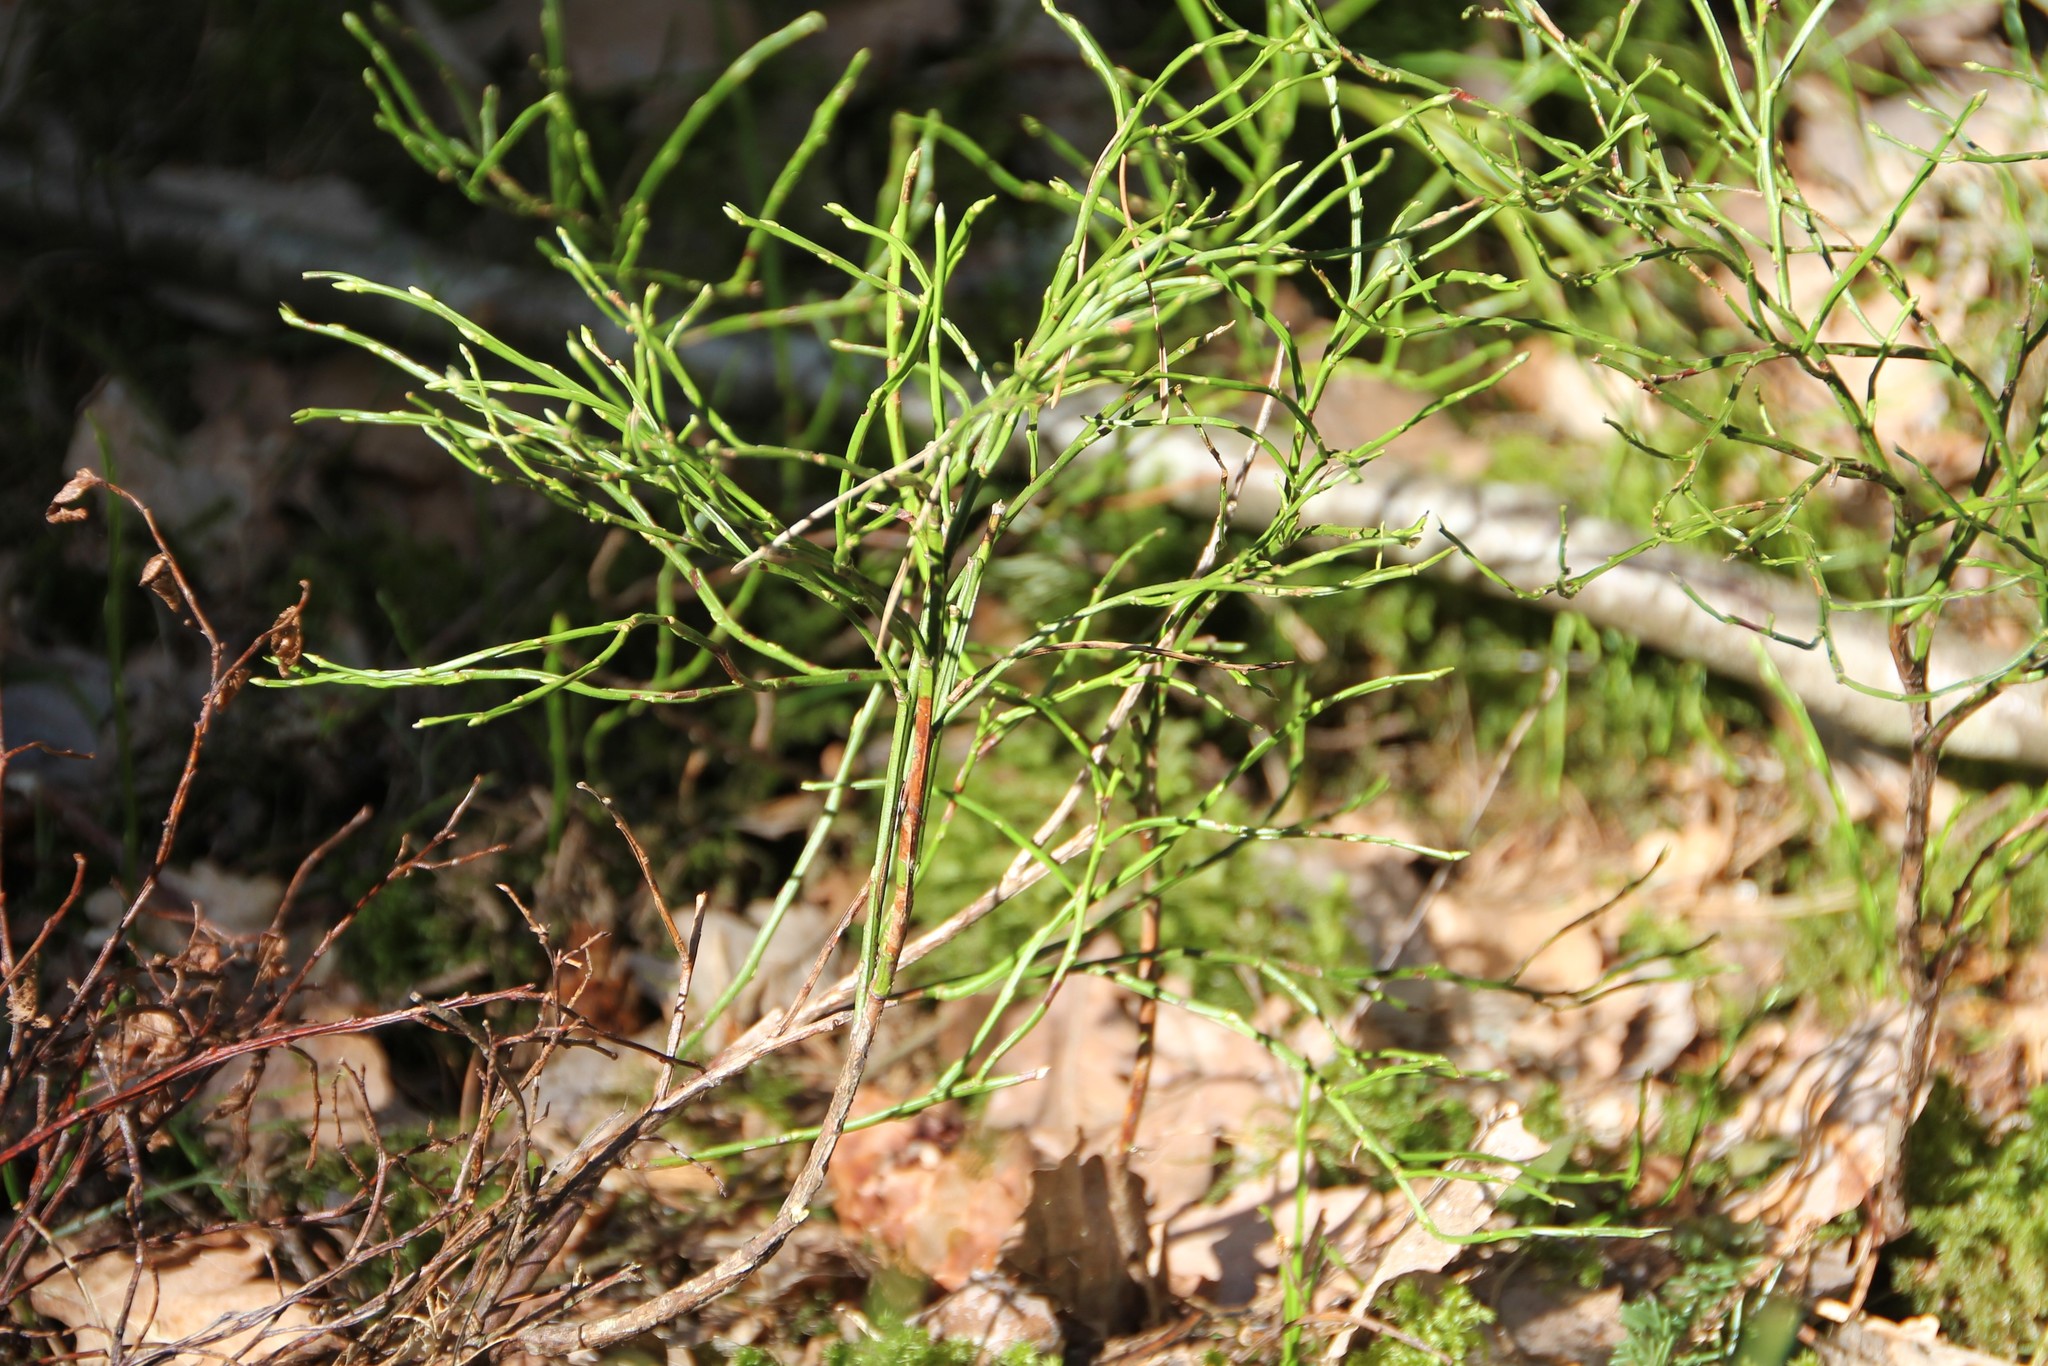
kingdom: Plantae
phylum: Tracheophyta
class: Magnoliopsida
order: Ericales
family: Ericaceae
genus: Vaccinium
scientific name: Vaccinium myrtillus
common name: Bilberry
